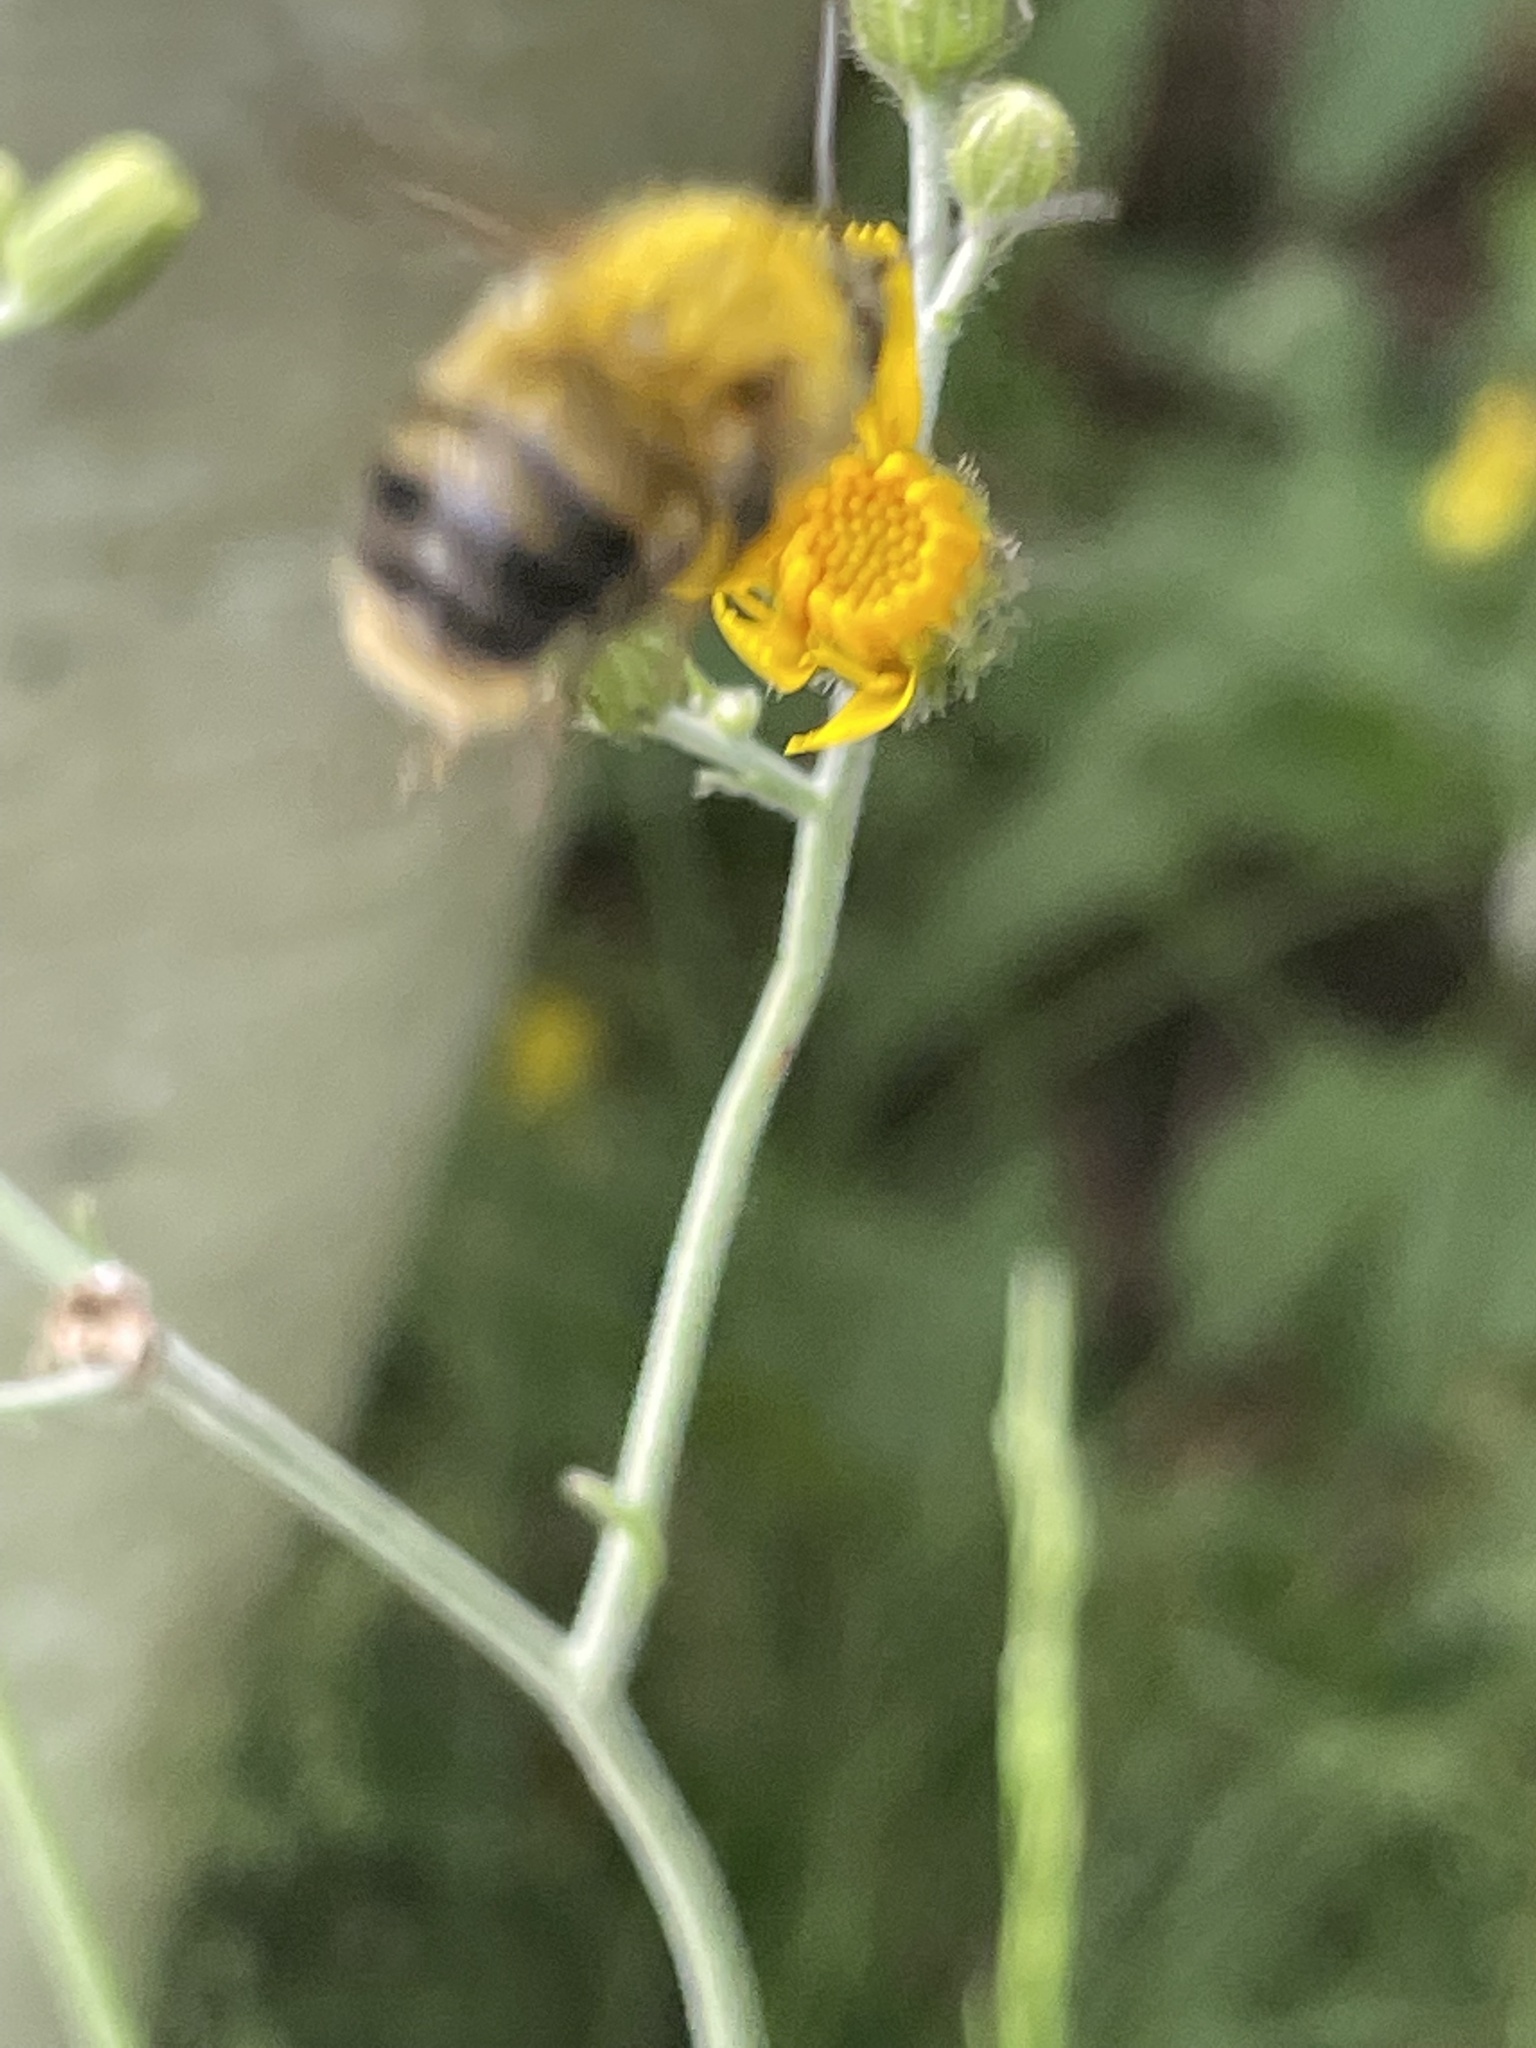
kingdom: Animalia
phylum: Arthropoda
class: Insecta
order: Hymenoptera
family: Apidae
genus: Bombus
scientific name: Bombus perplexus
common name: Confusing bumble bee
